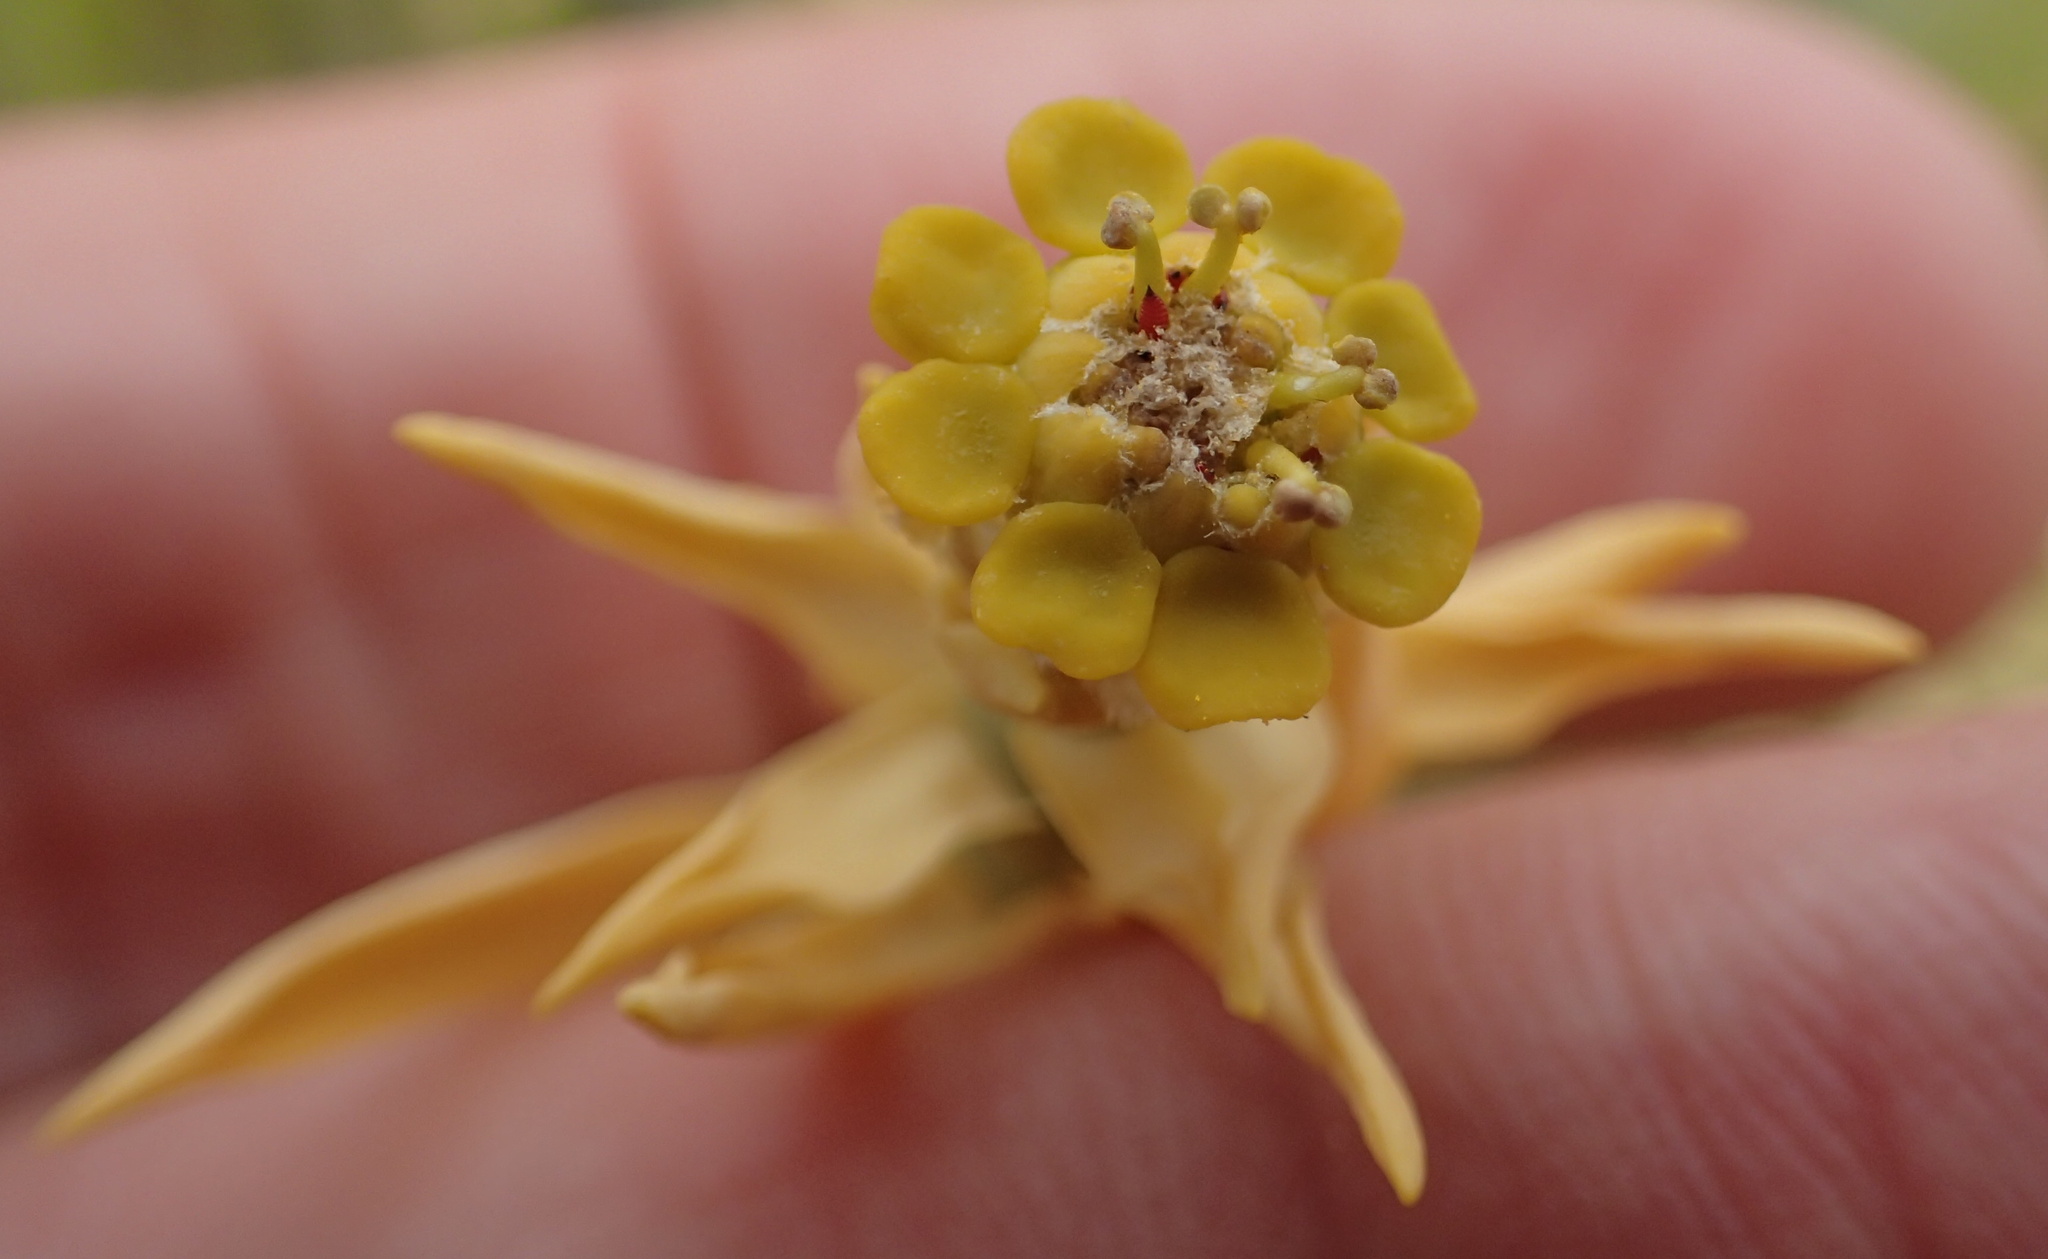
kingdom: Plantae
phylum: Tracheophyta
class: Magnoliopsida
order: Malpighiales
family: Euphorbiaceae
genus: Euphorbia
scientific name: Euphorbia mauritanica
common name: Jackal's-food
